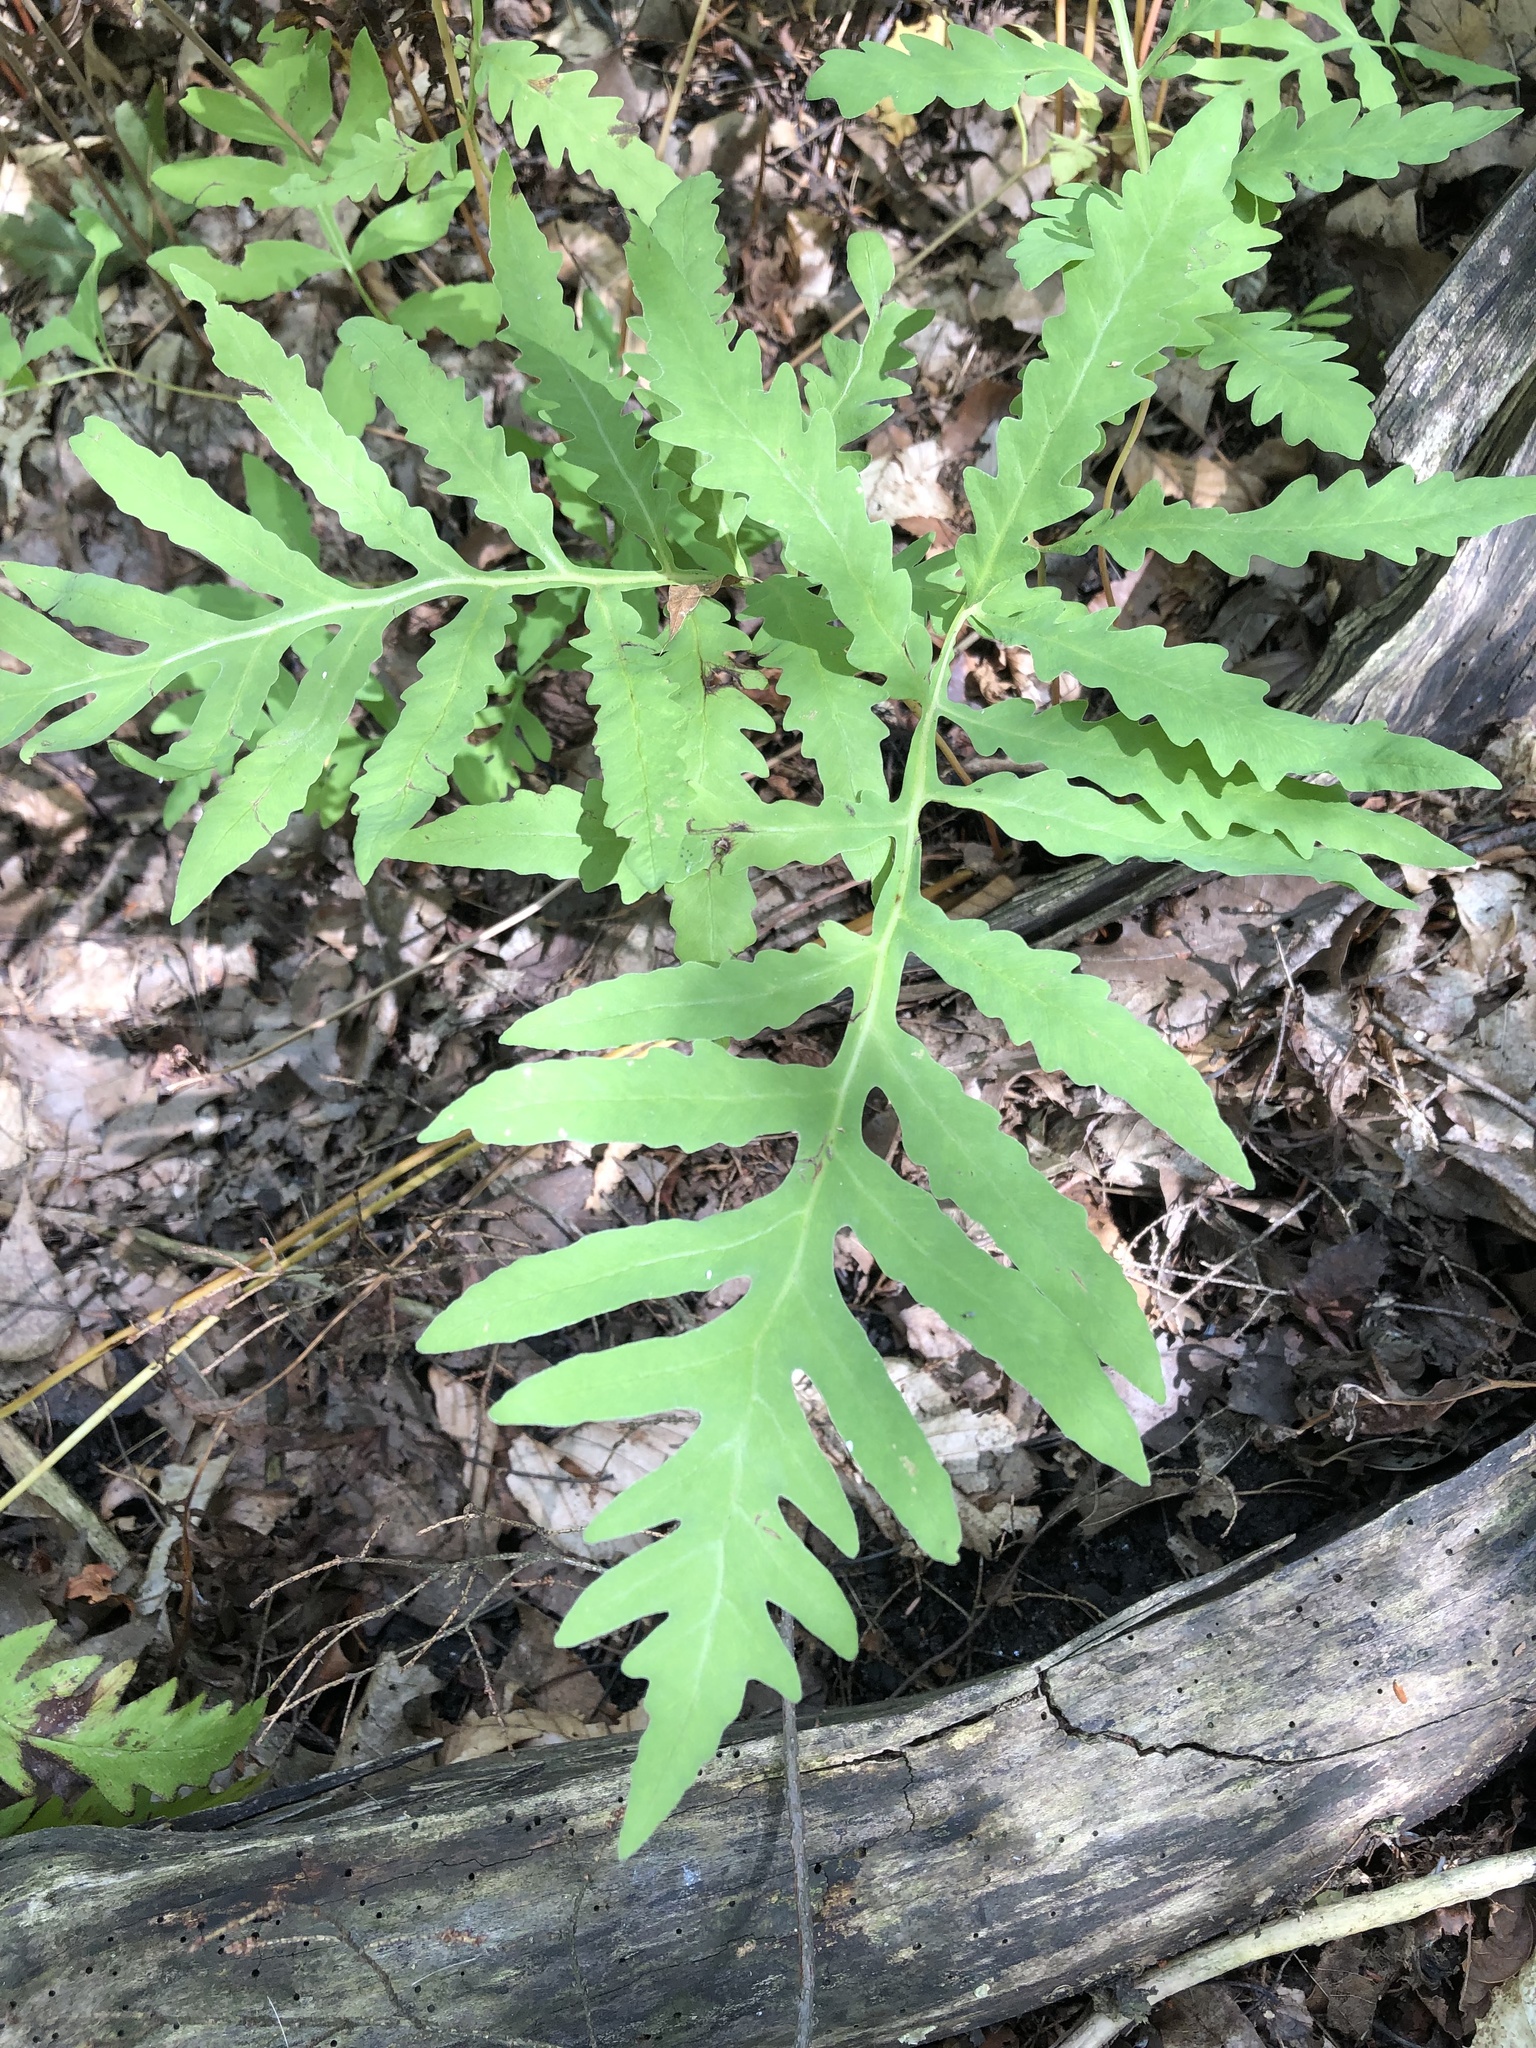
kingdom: Plantae
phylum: Tracheophyta
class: Polypodiopsida
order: Polypodiales
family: Onocleaceae
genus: Onoclea
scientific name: Onoclea sensibilis
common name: Sensitive fern
